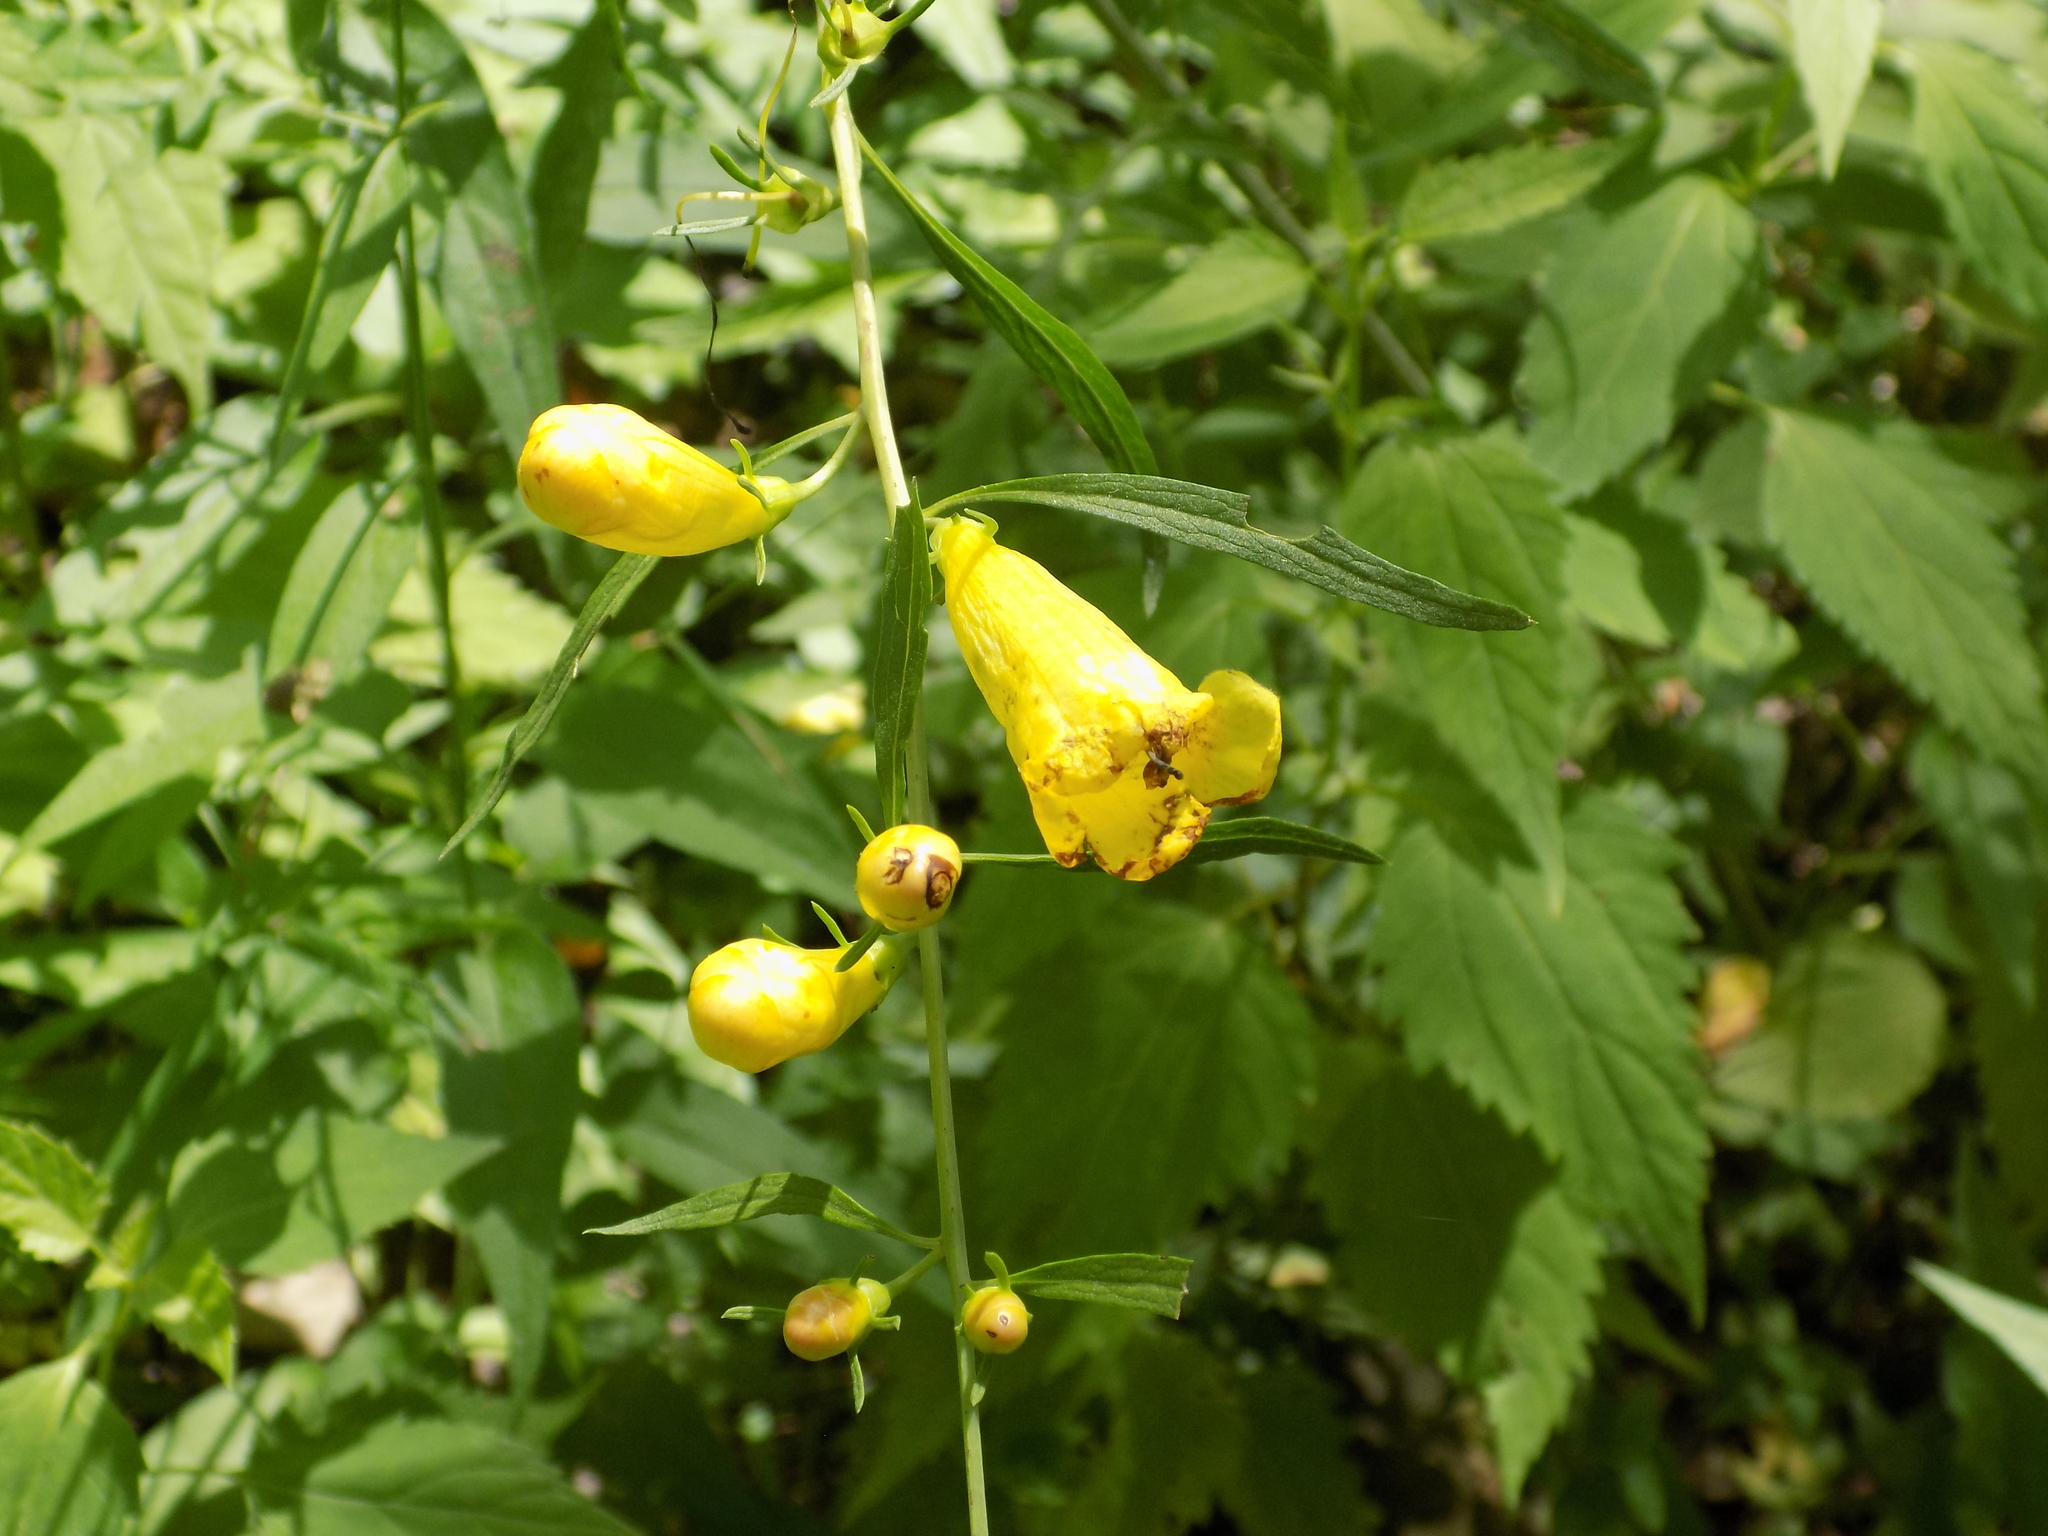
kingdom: Plantae
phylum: Tracheophyta
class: Magnoliopsida
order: Lamiales
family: Orobanchaceae
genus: Aureolaria
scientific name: Aureolaria flava
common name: Smooth false foxglove
